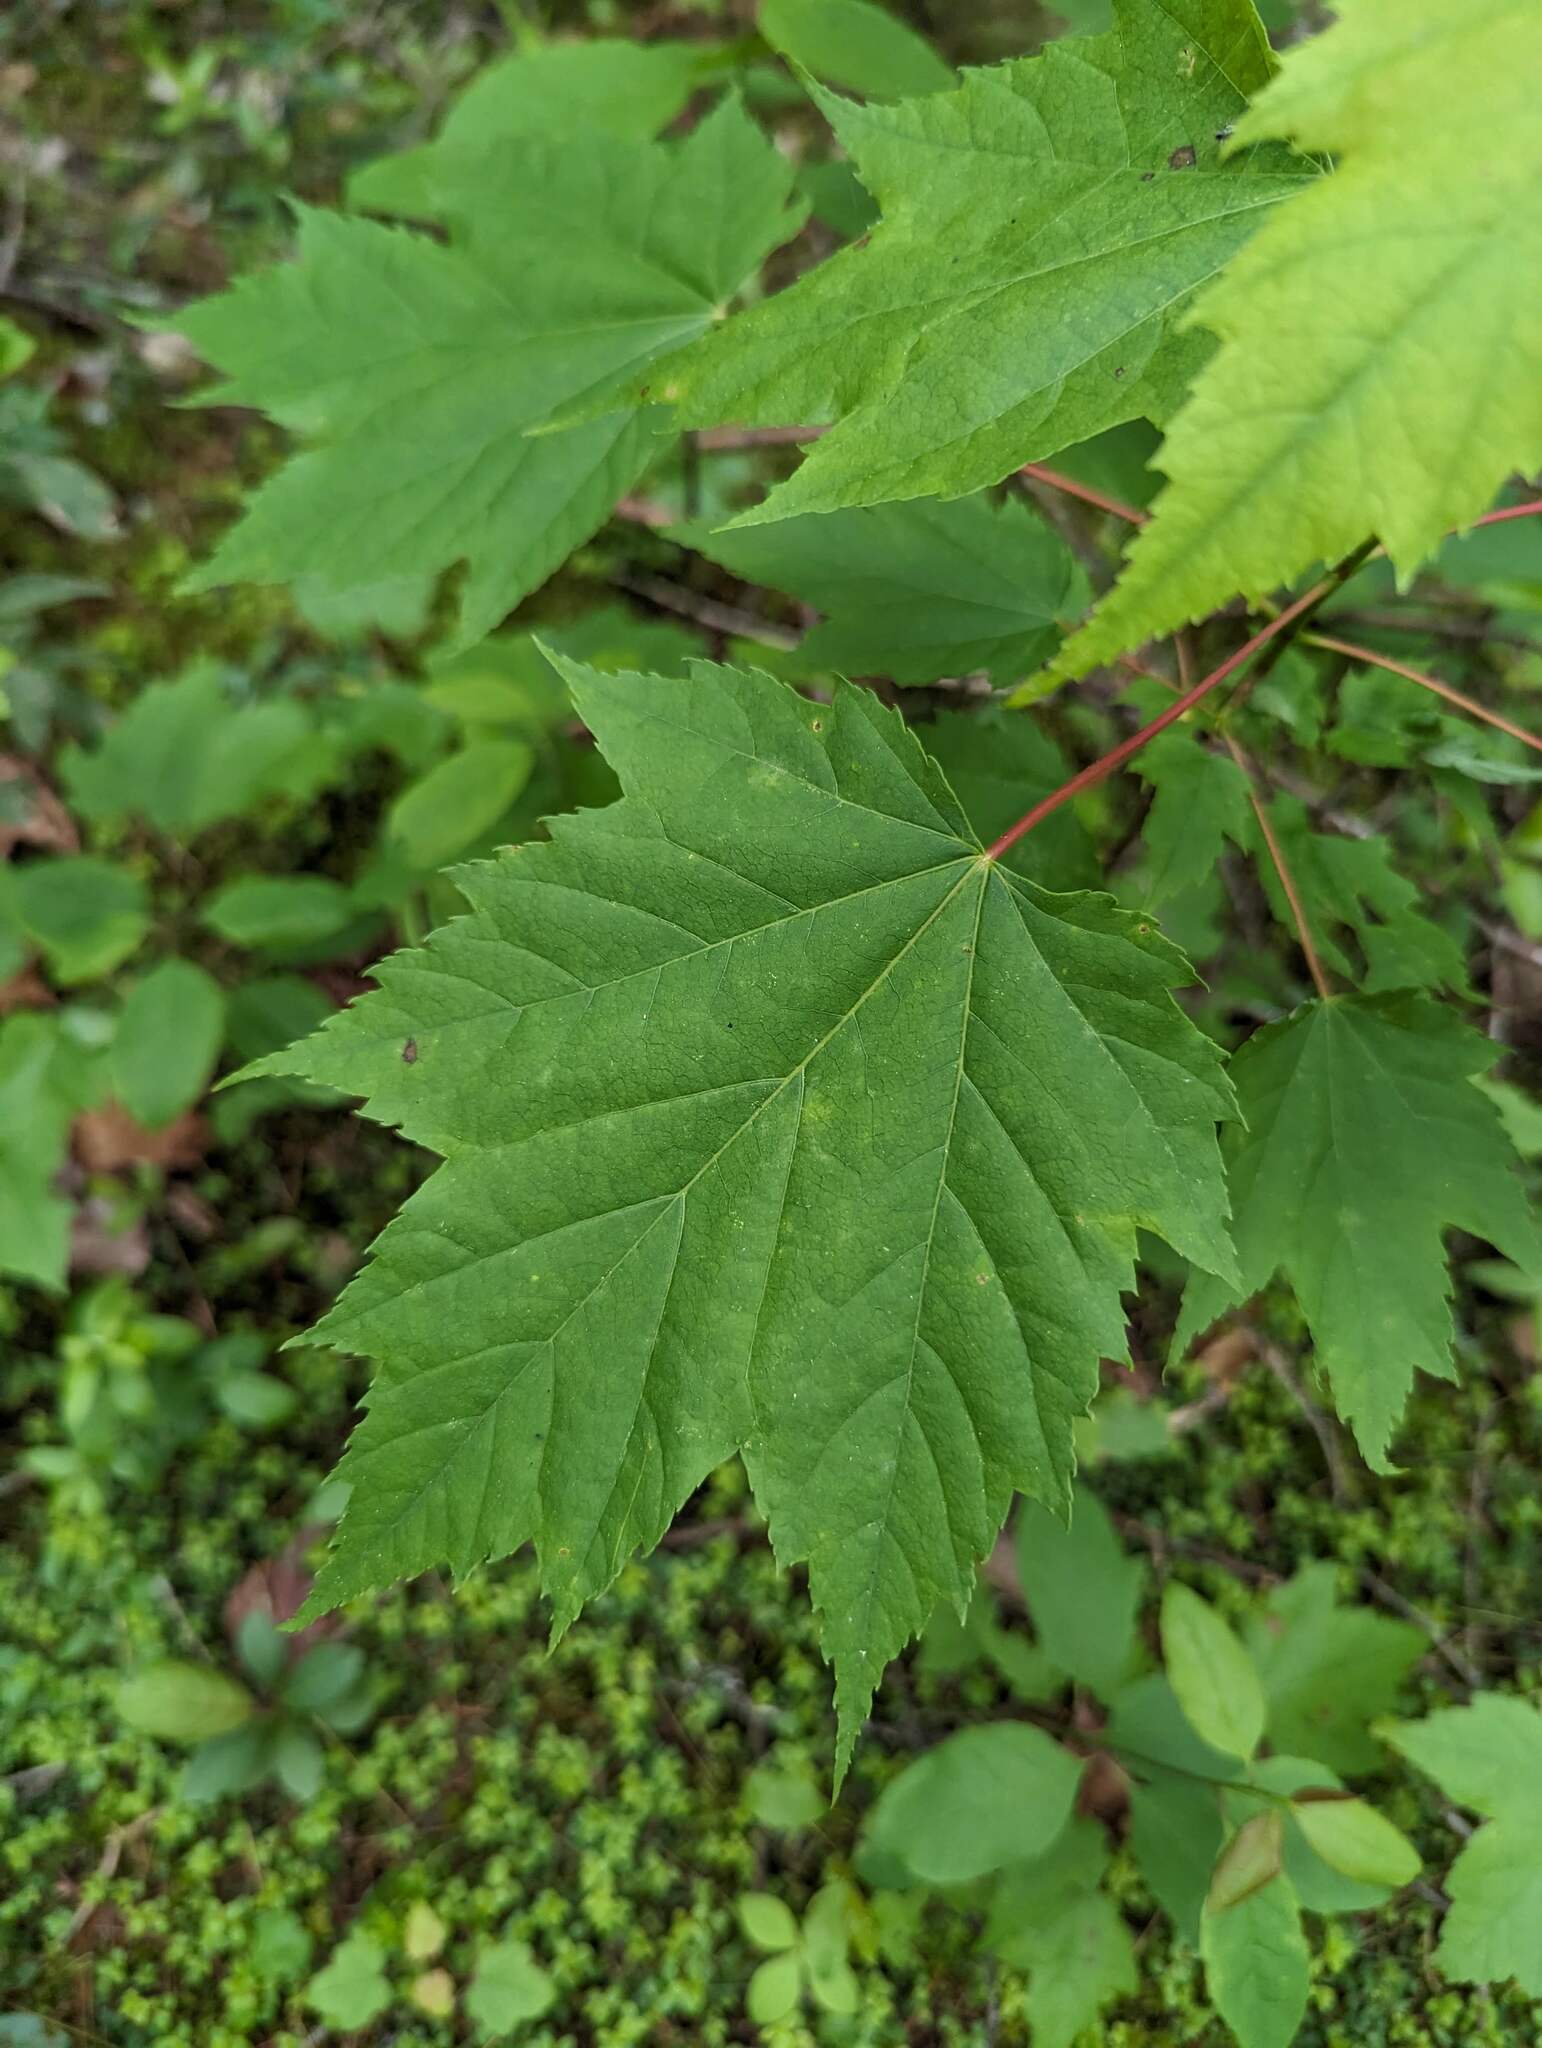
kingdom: Plantae
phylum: Tracheophyta
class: Magnoliopsida
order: Sapindales
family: Sapindaceae
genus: Acer
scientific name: Acer rubrum
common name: Red maple
